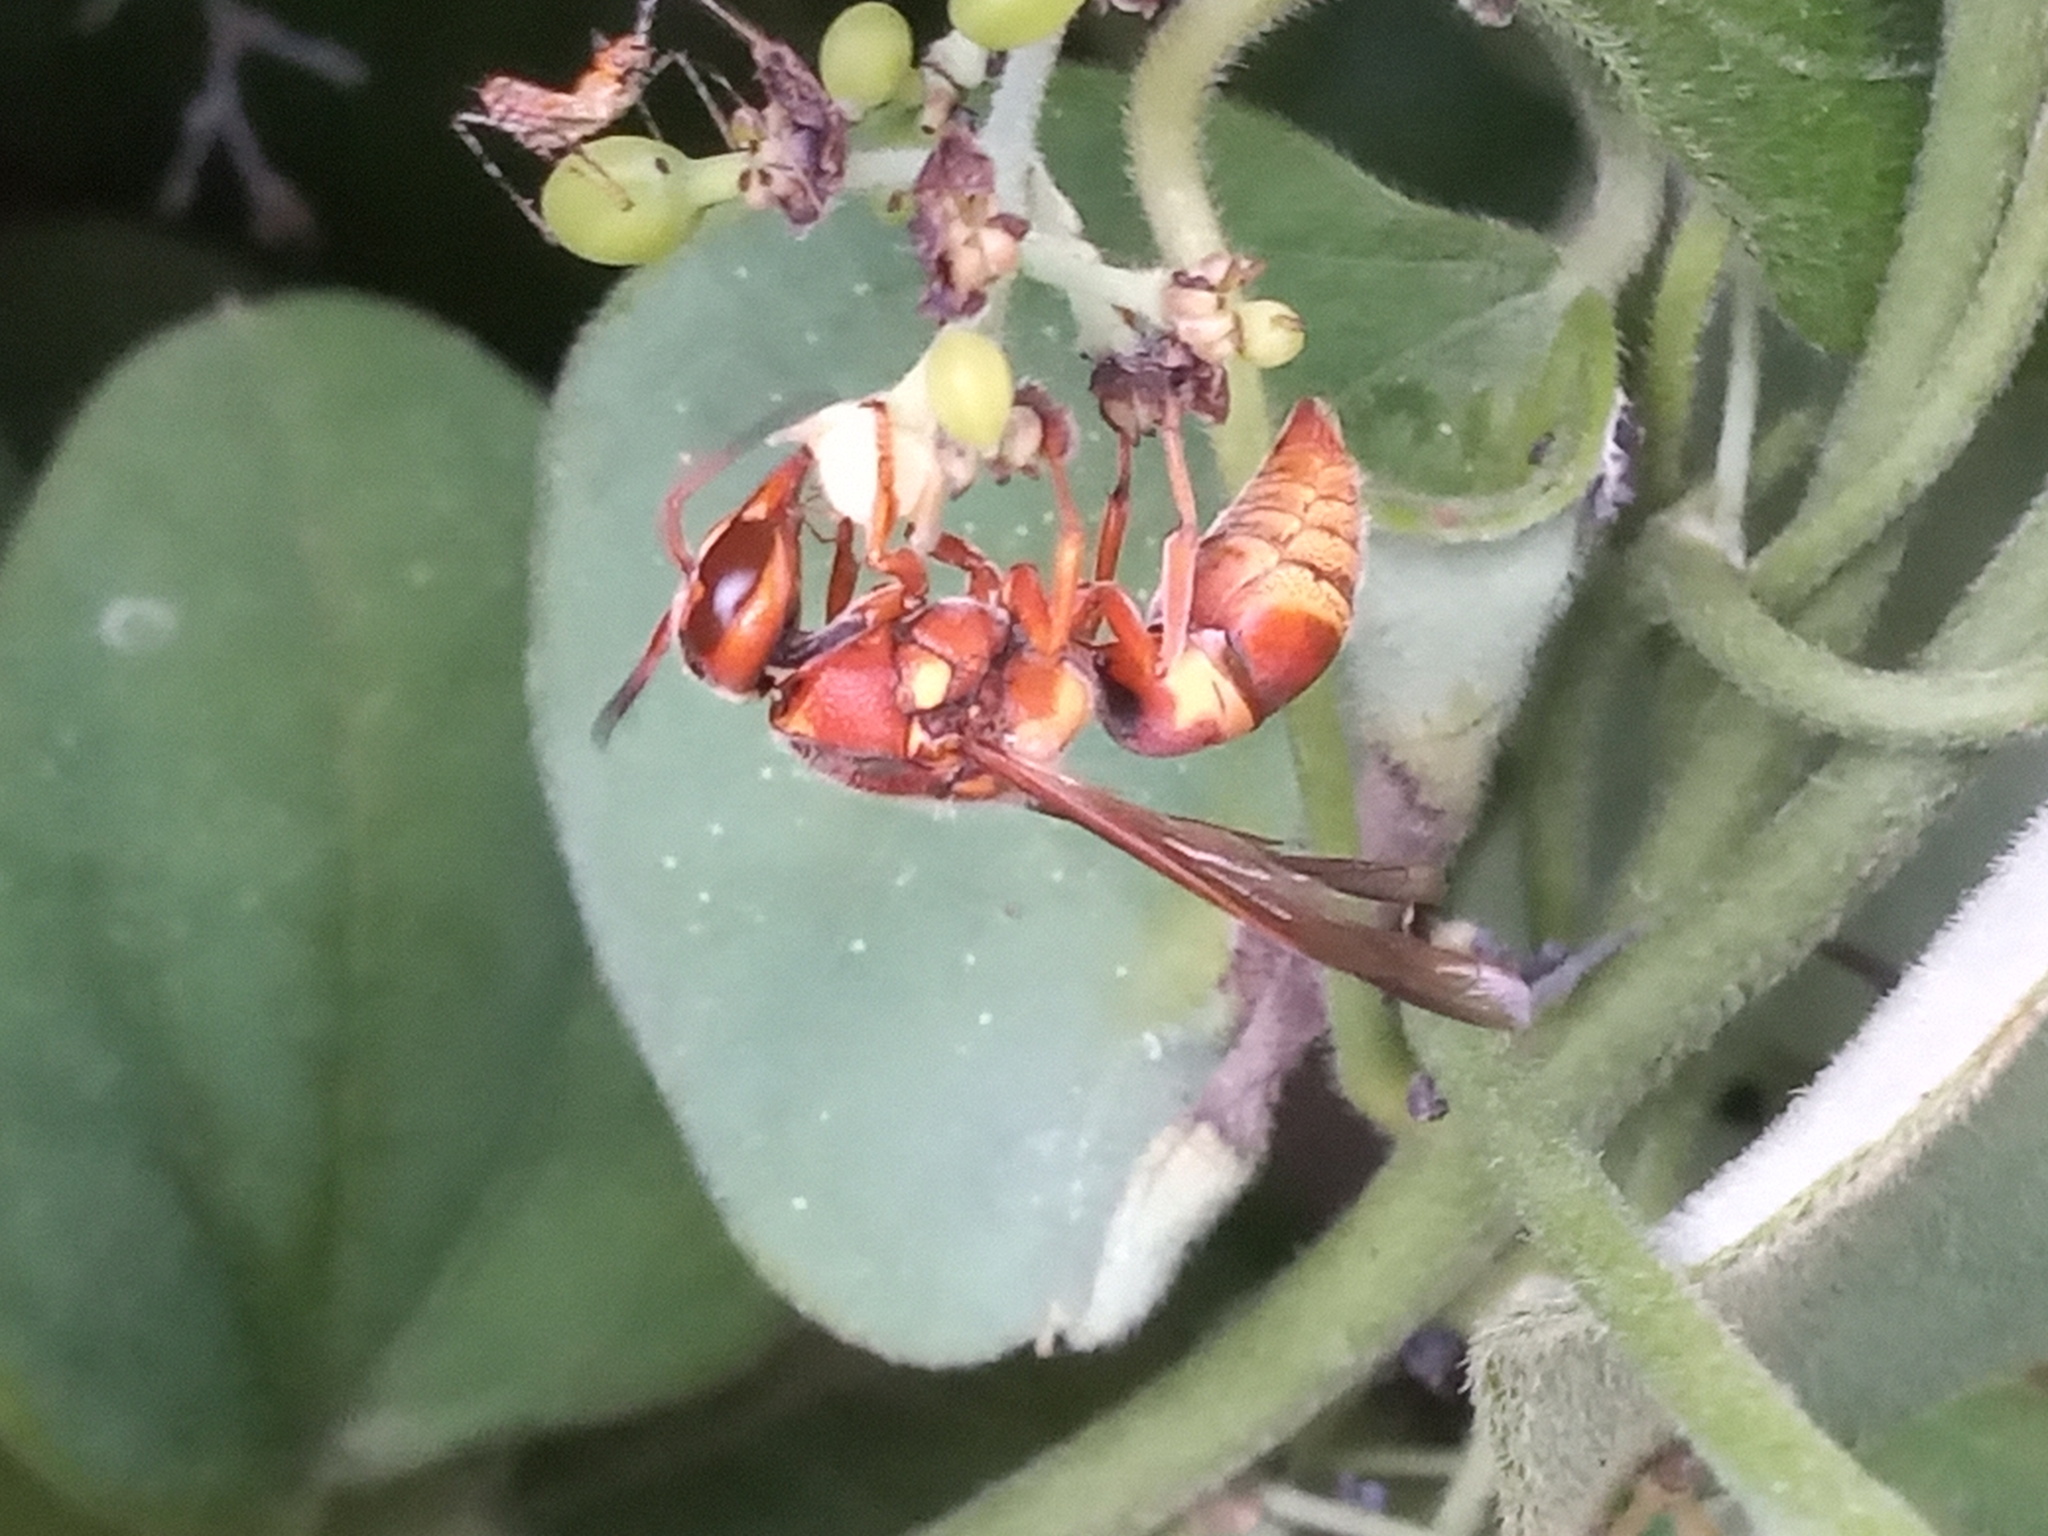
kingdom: Animalia
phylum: Arthropoda
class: Insecta
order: Hymenoptera
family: Eumenidae
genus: Euodynerus
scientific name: Euodynerus pratensis
